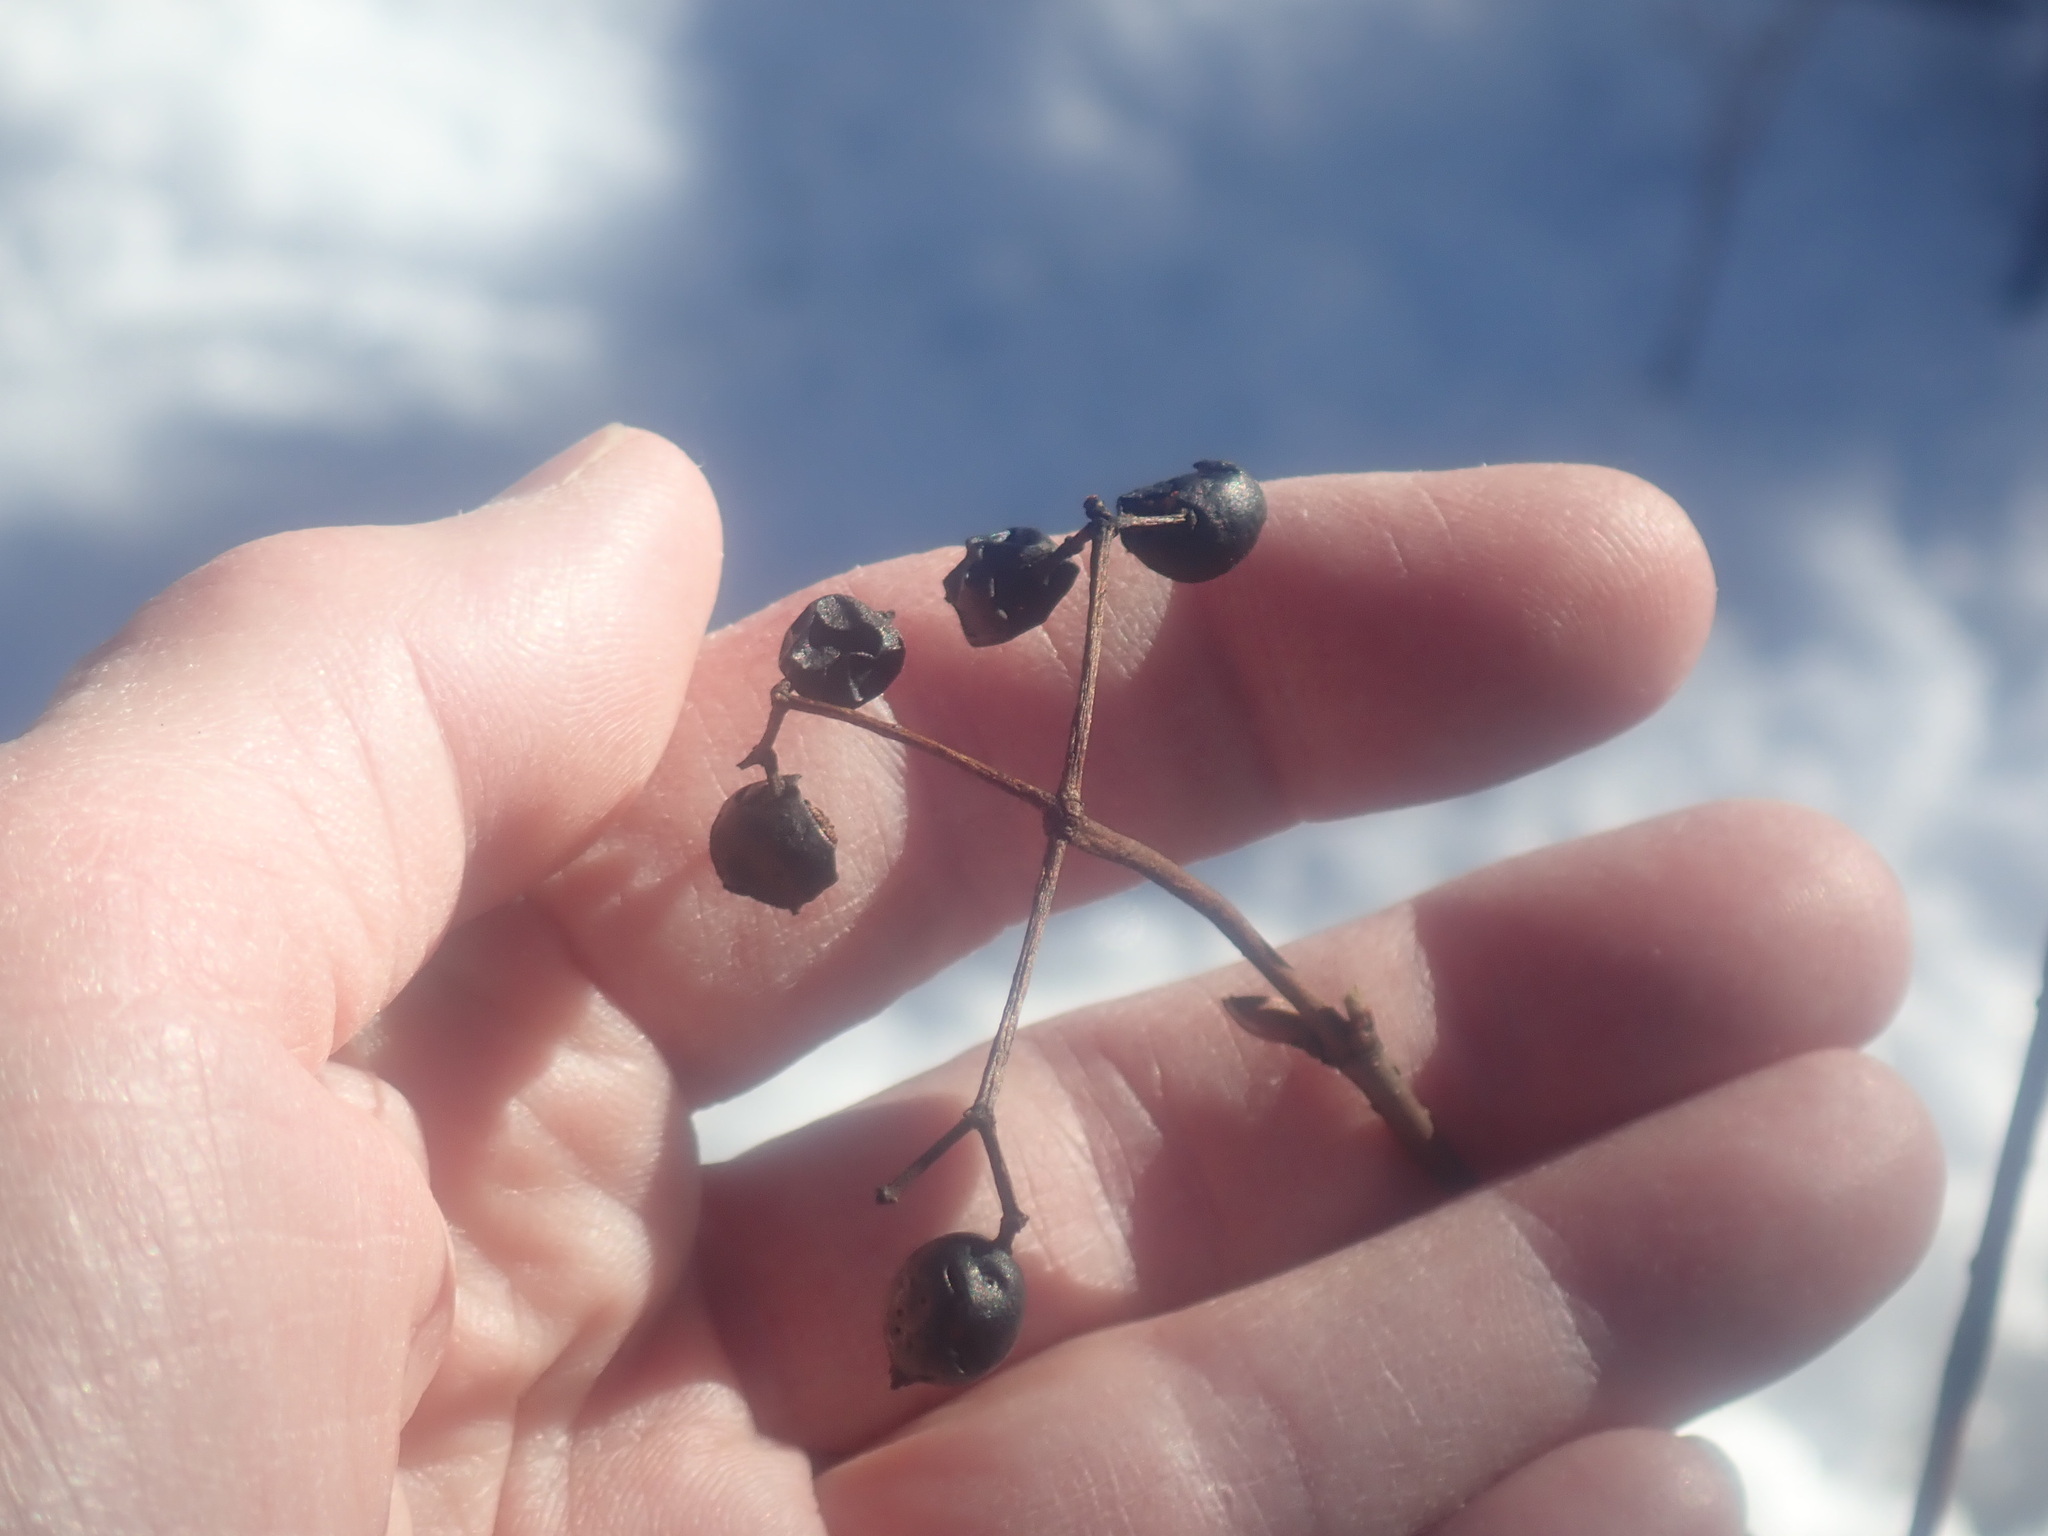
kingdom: Plantae
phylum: Tracheophyta
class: Magnoliopsida
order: Dipsacales
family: Viburnaceae
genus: Viburnum
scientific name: Viburnum acerifolium
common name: Dockmackie
